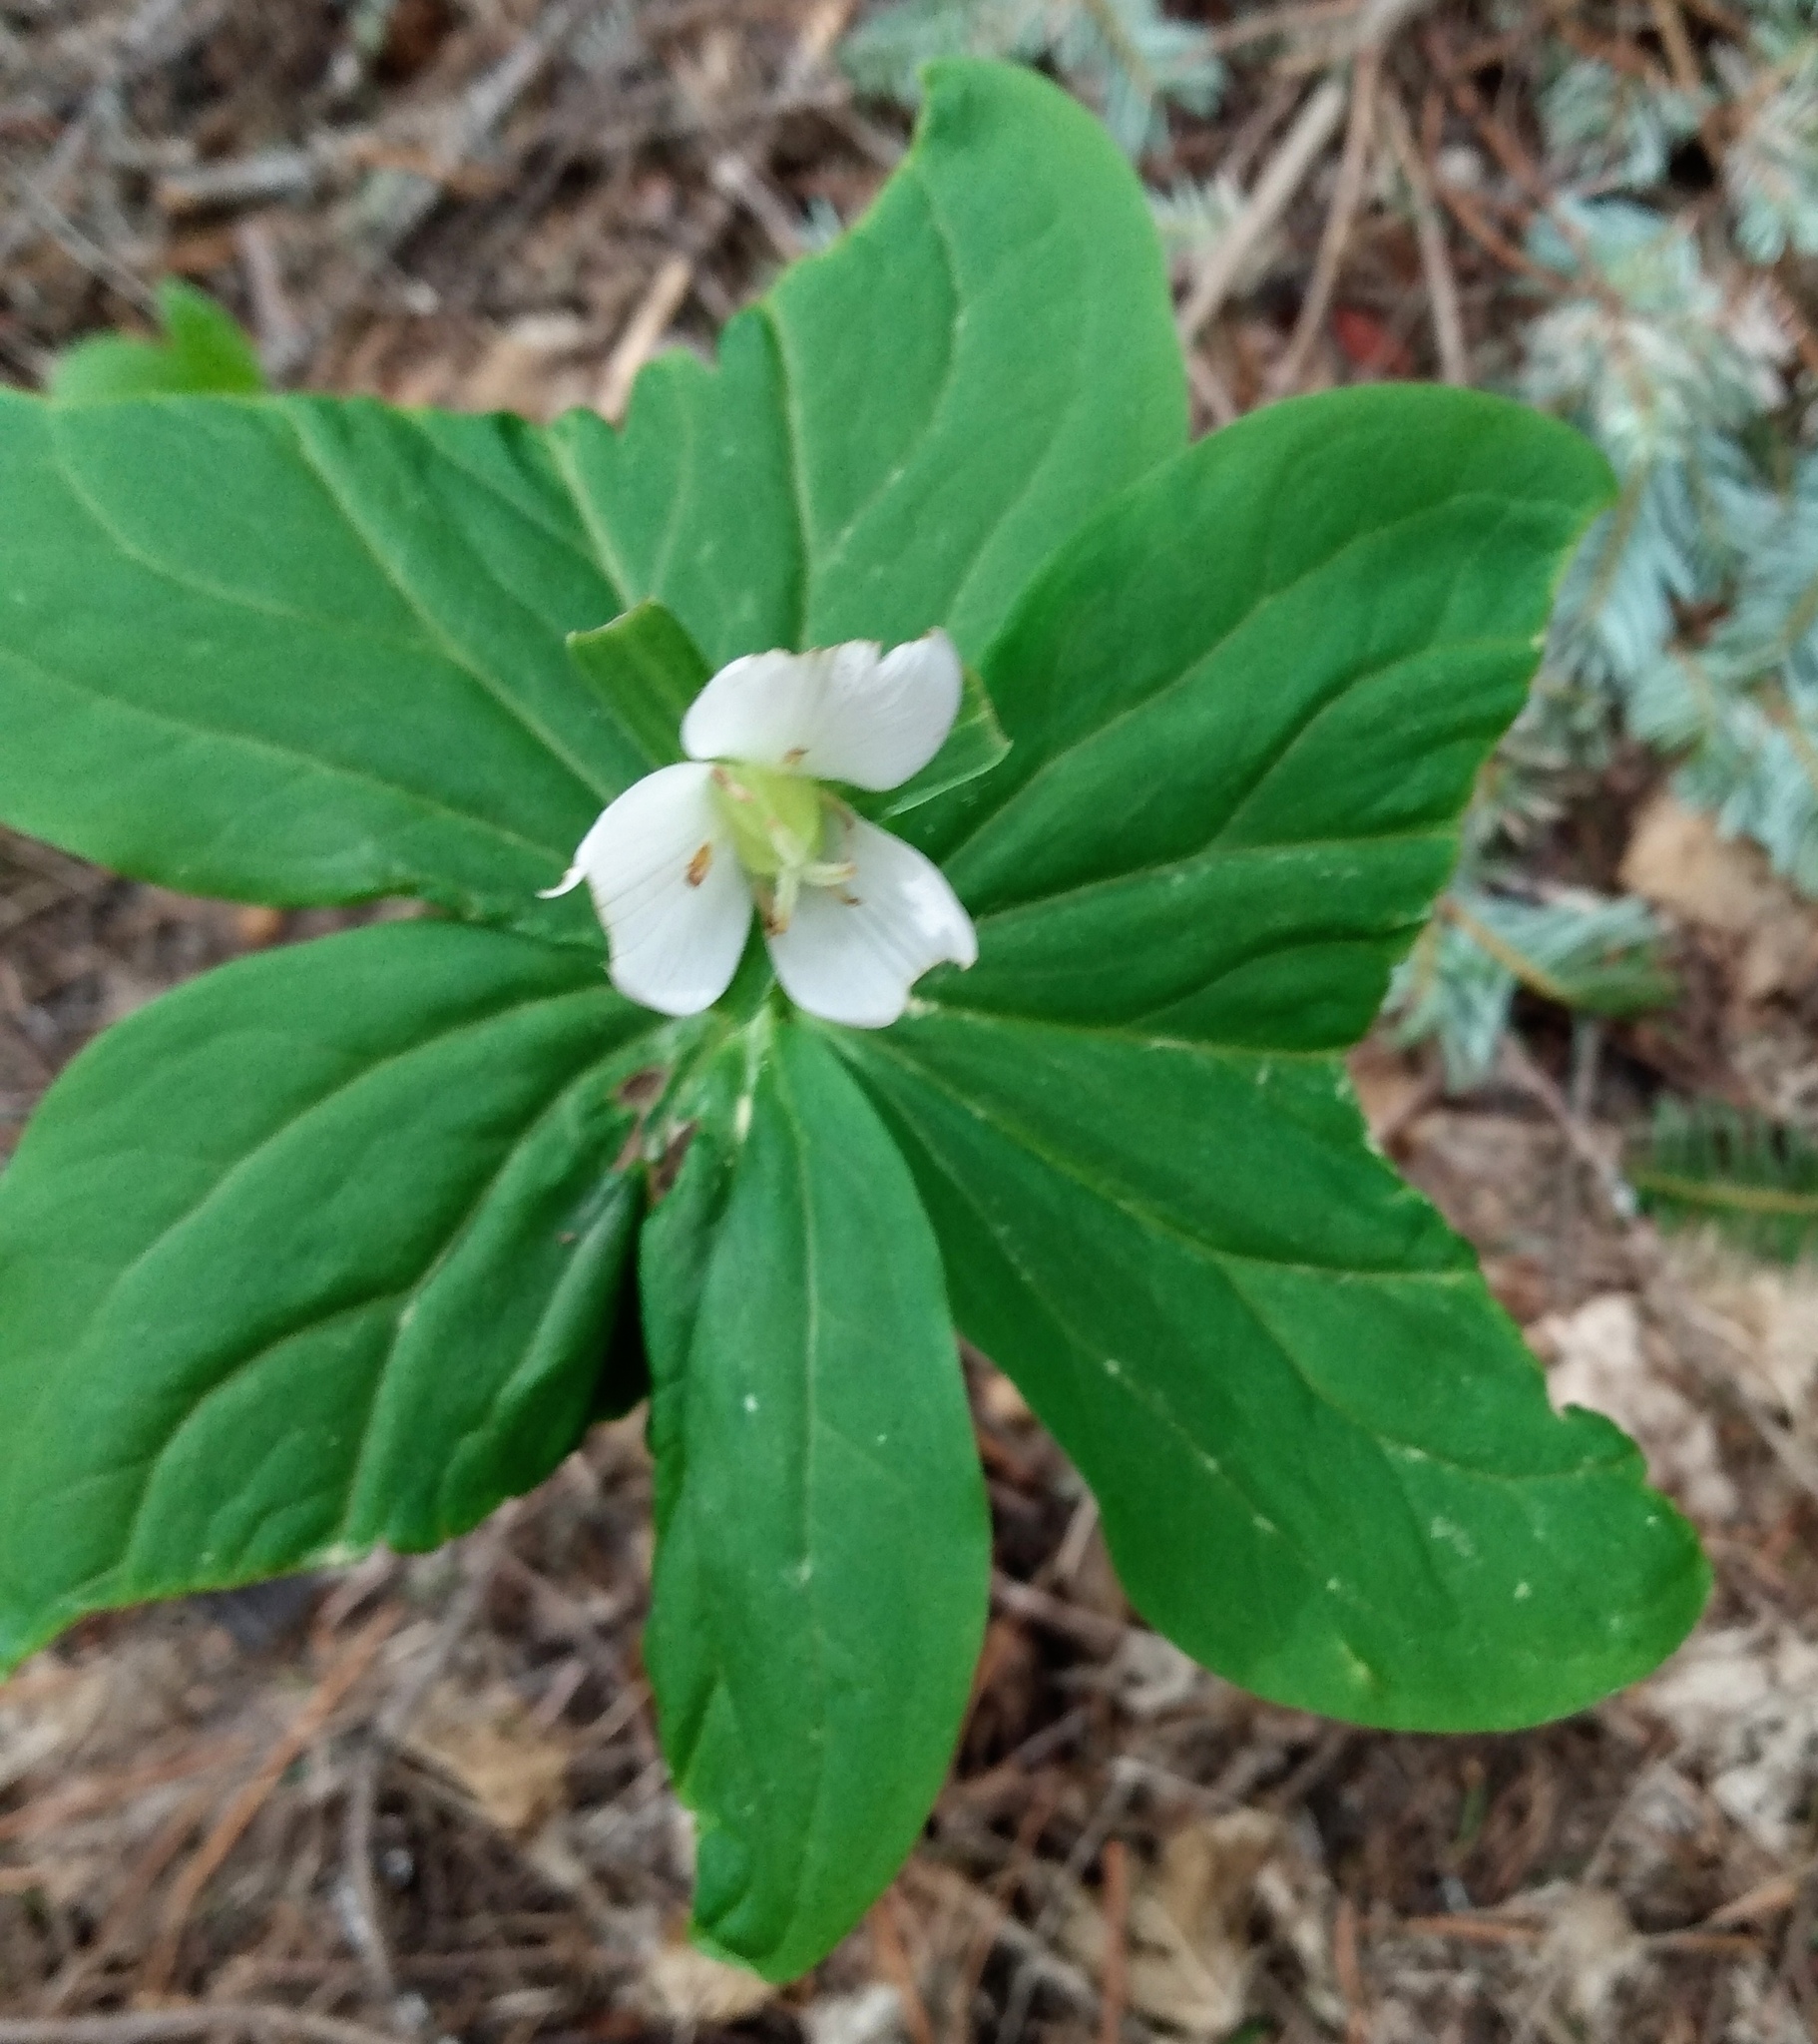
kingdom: Plantae
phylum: Tracheophyta
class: Liliopsida
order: Liliales
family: Melanthiaceae
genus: Trillium
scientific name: Trillium ovatum
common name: Pacific trillium
